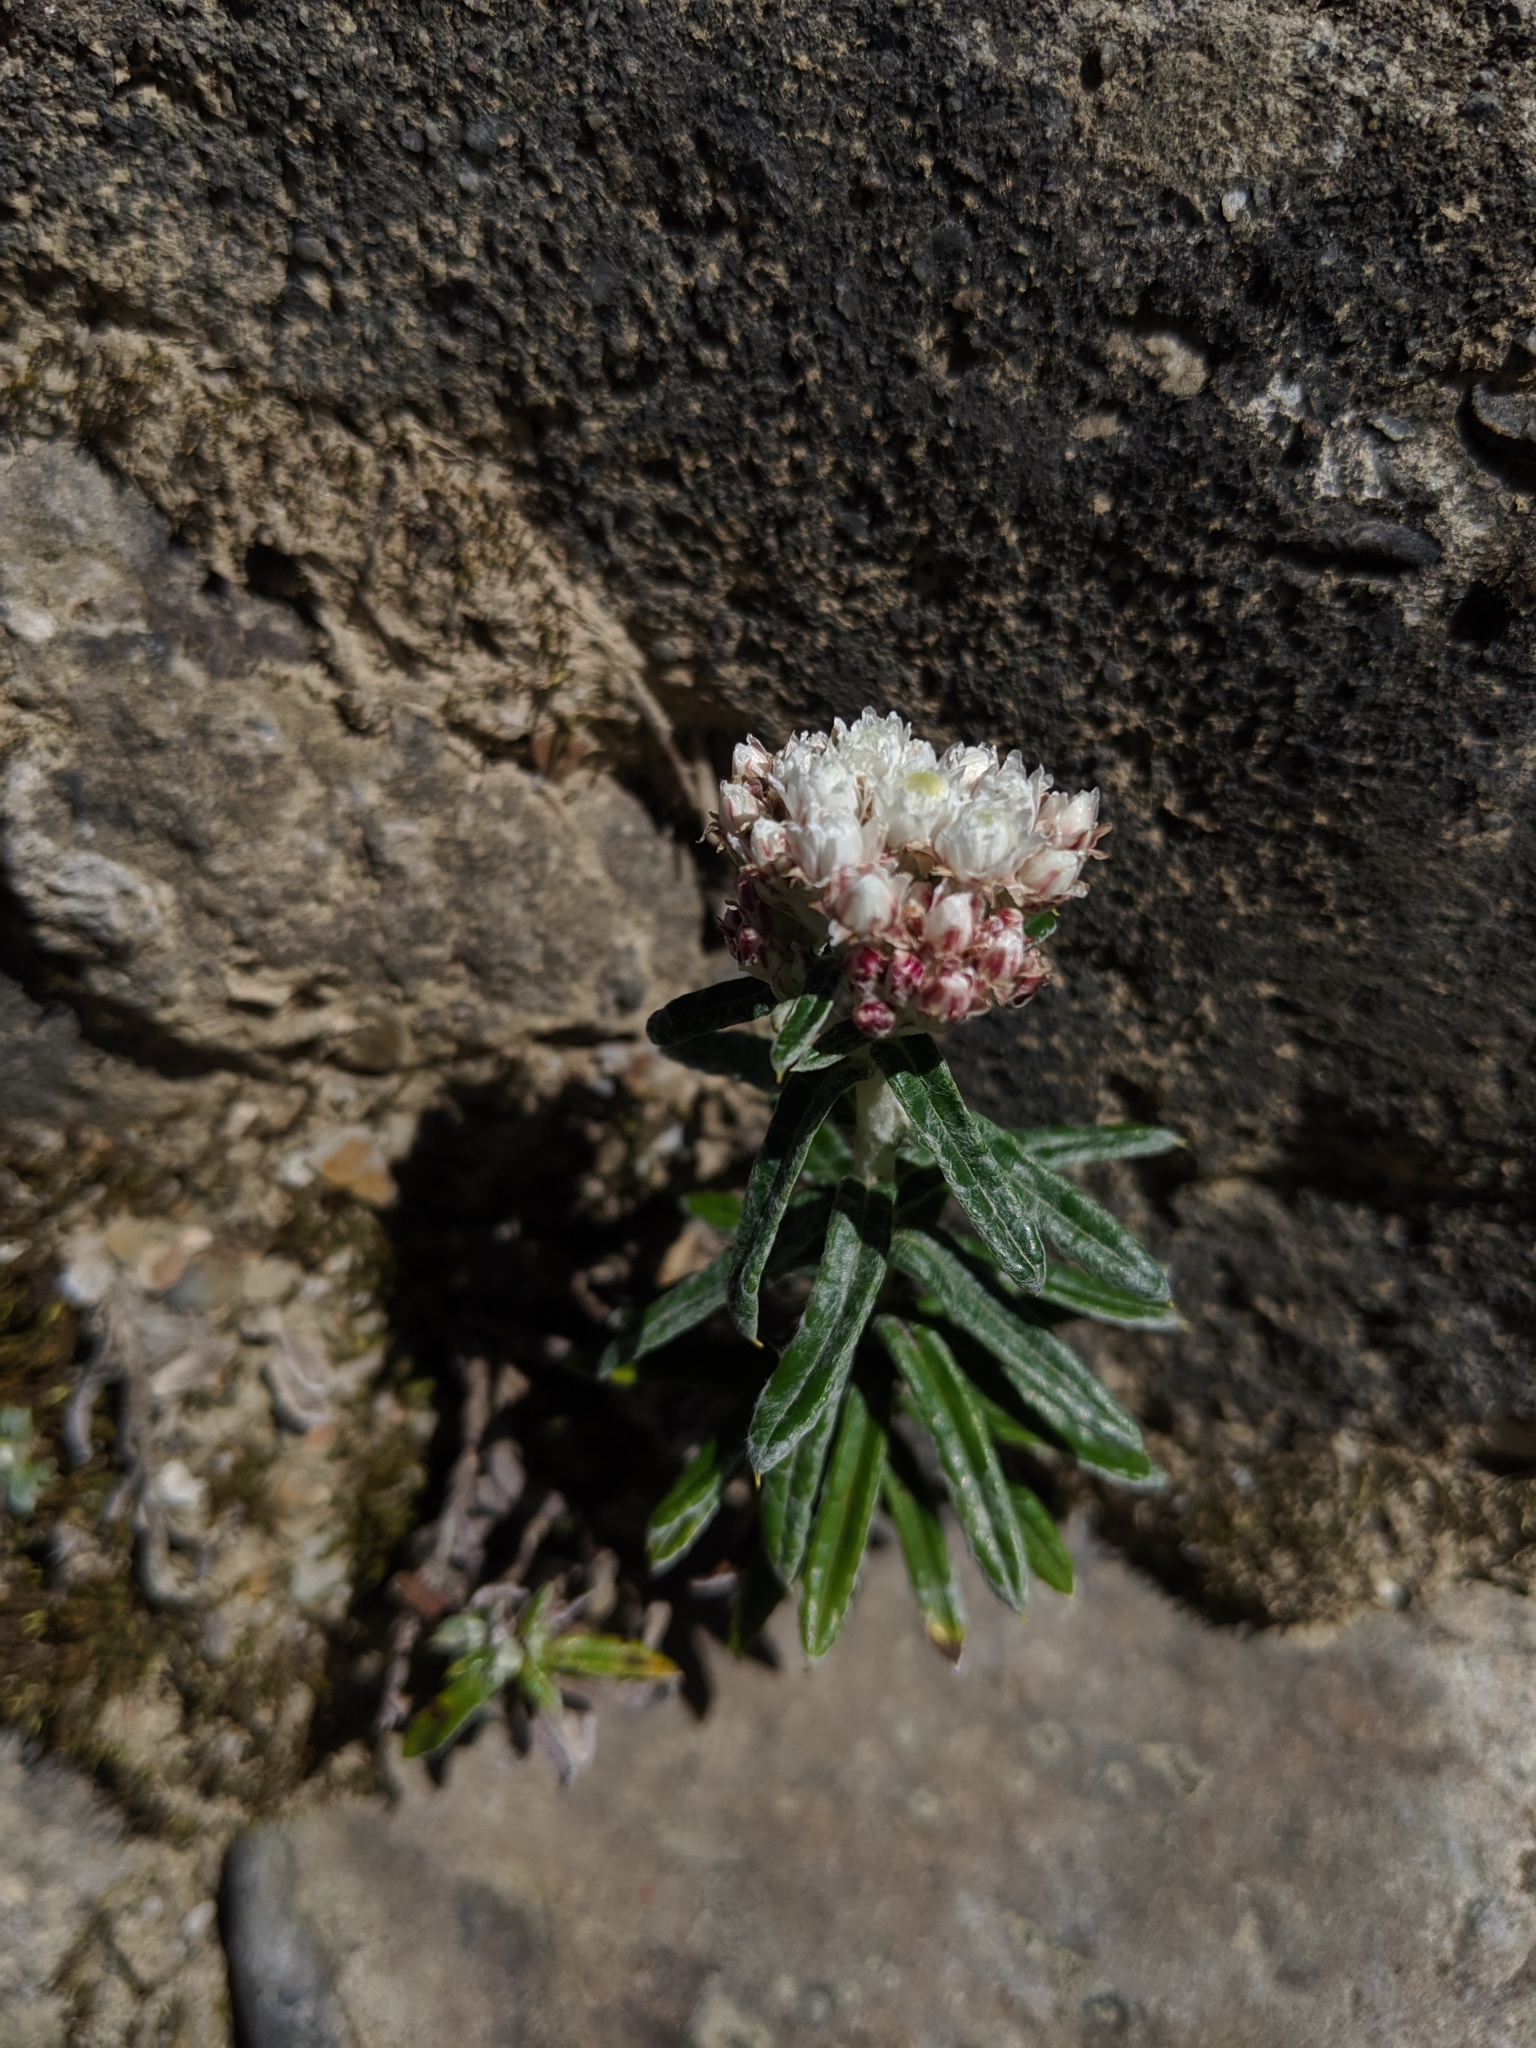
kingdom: Plantae
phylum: Tracheophyta
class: Magnoliopsida
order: Asterales
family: Asteraceae
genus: Anaphalis
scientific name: Anaphalis morrisonicola
